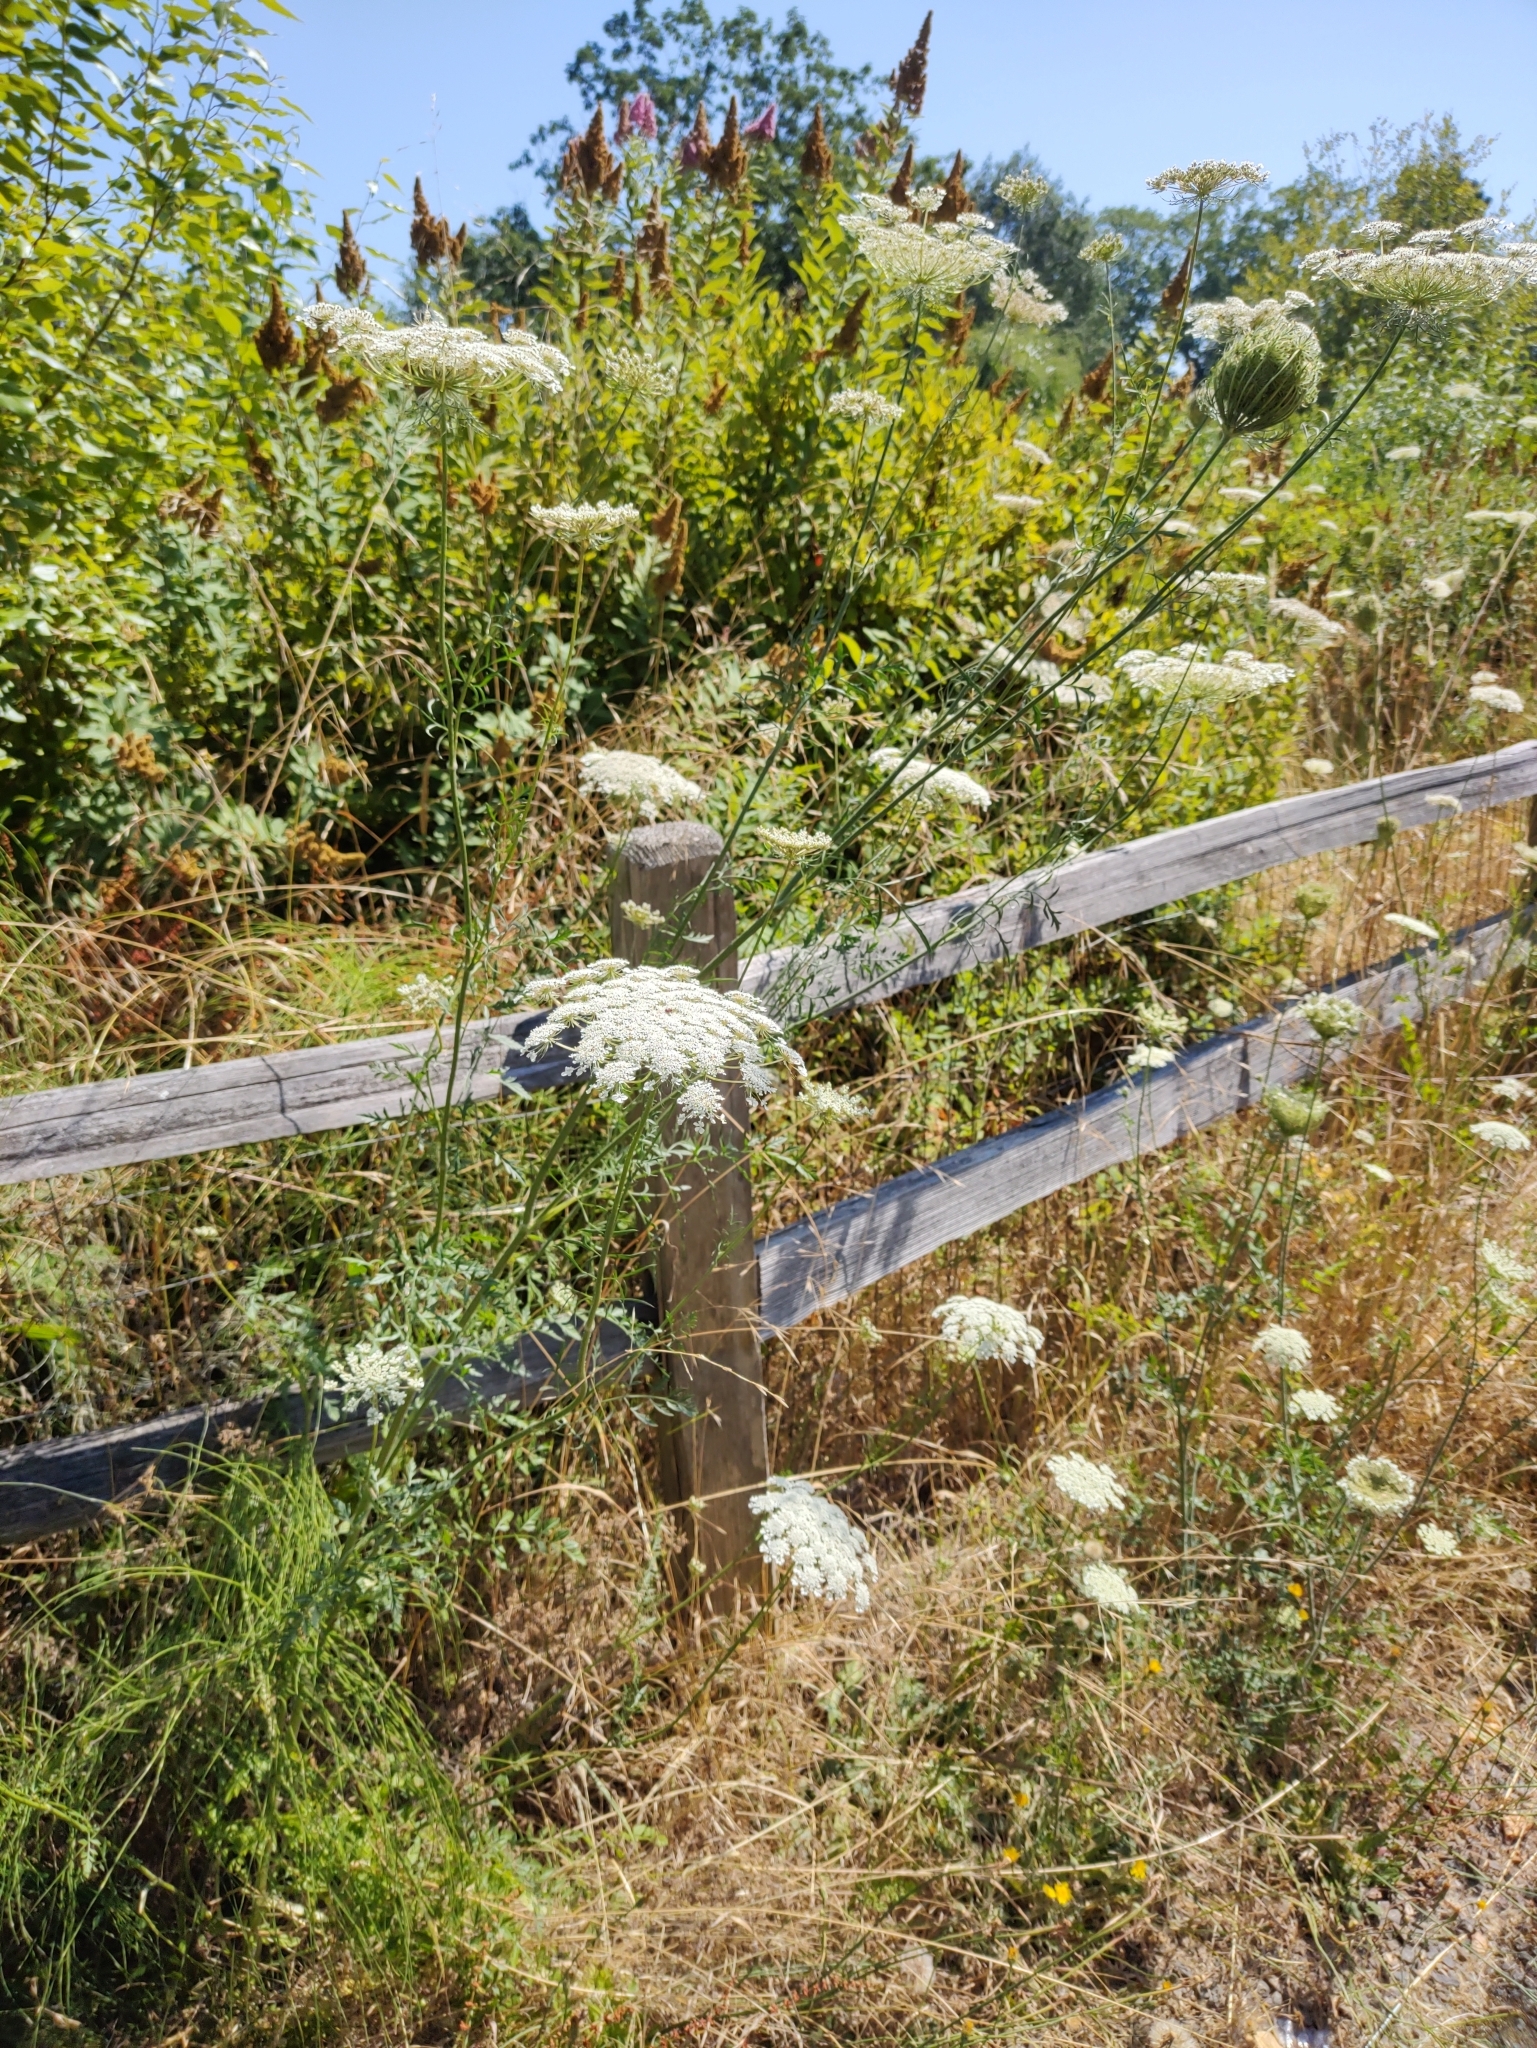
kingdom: Plantae
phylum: Tracheophyta
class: Magnoliopsida
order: Apiales
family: Apiaceae
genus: Daucus
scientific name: Daucus carota
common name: Wild carrot
